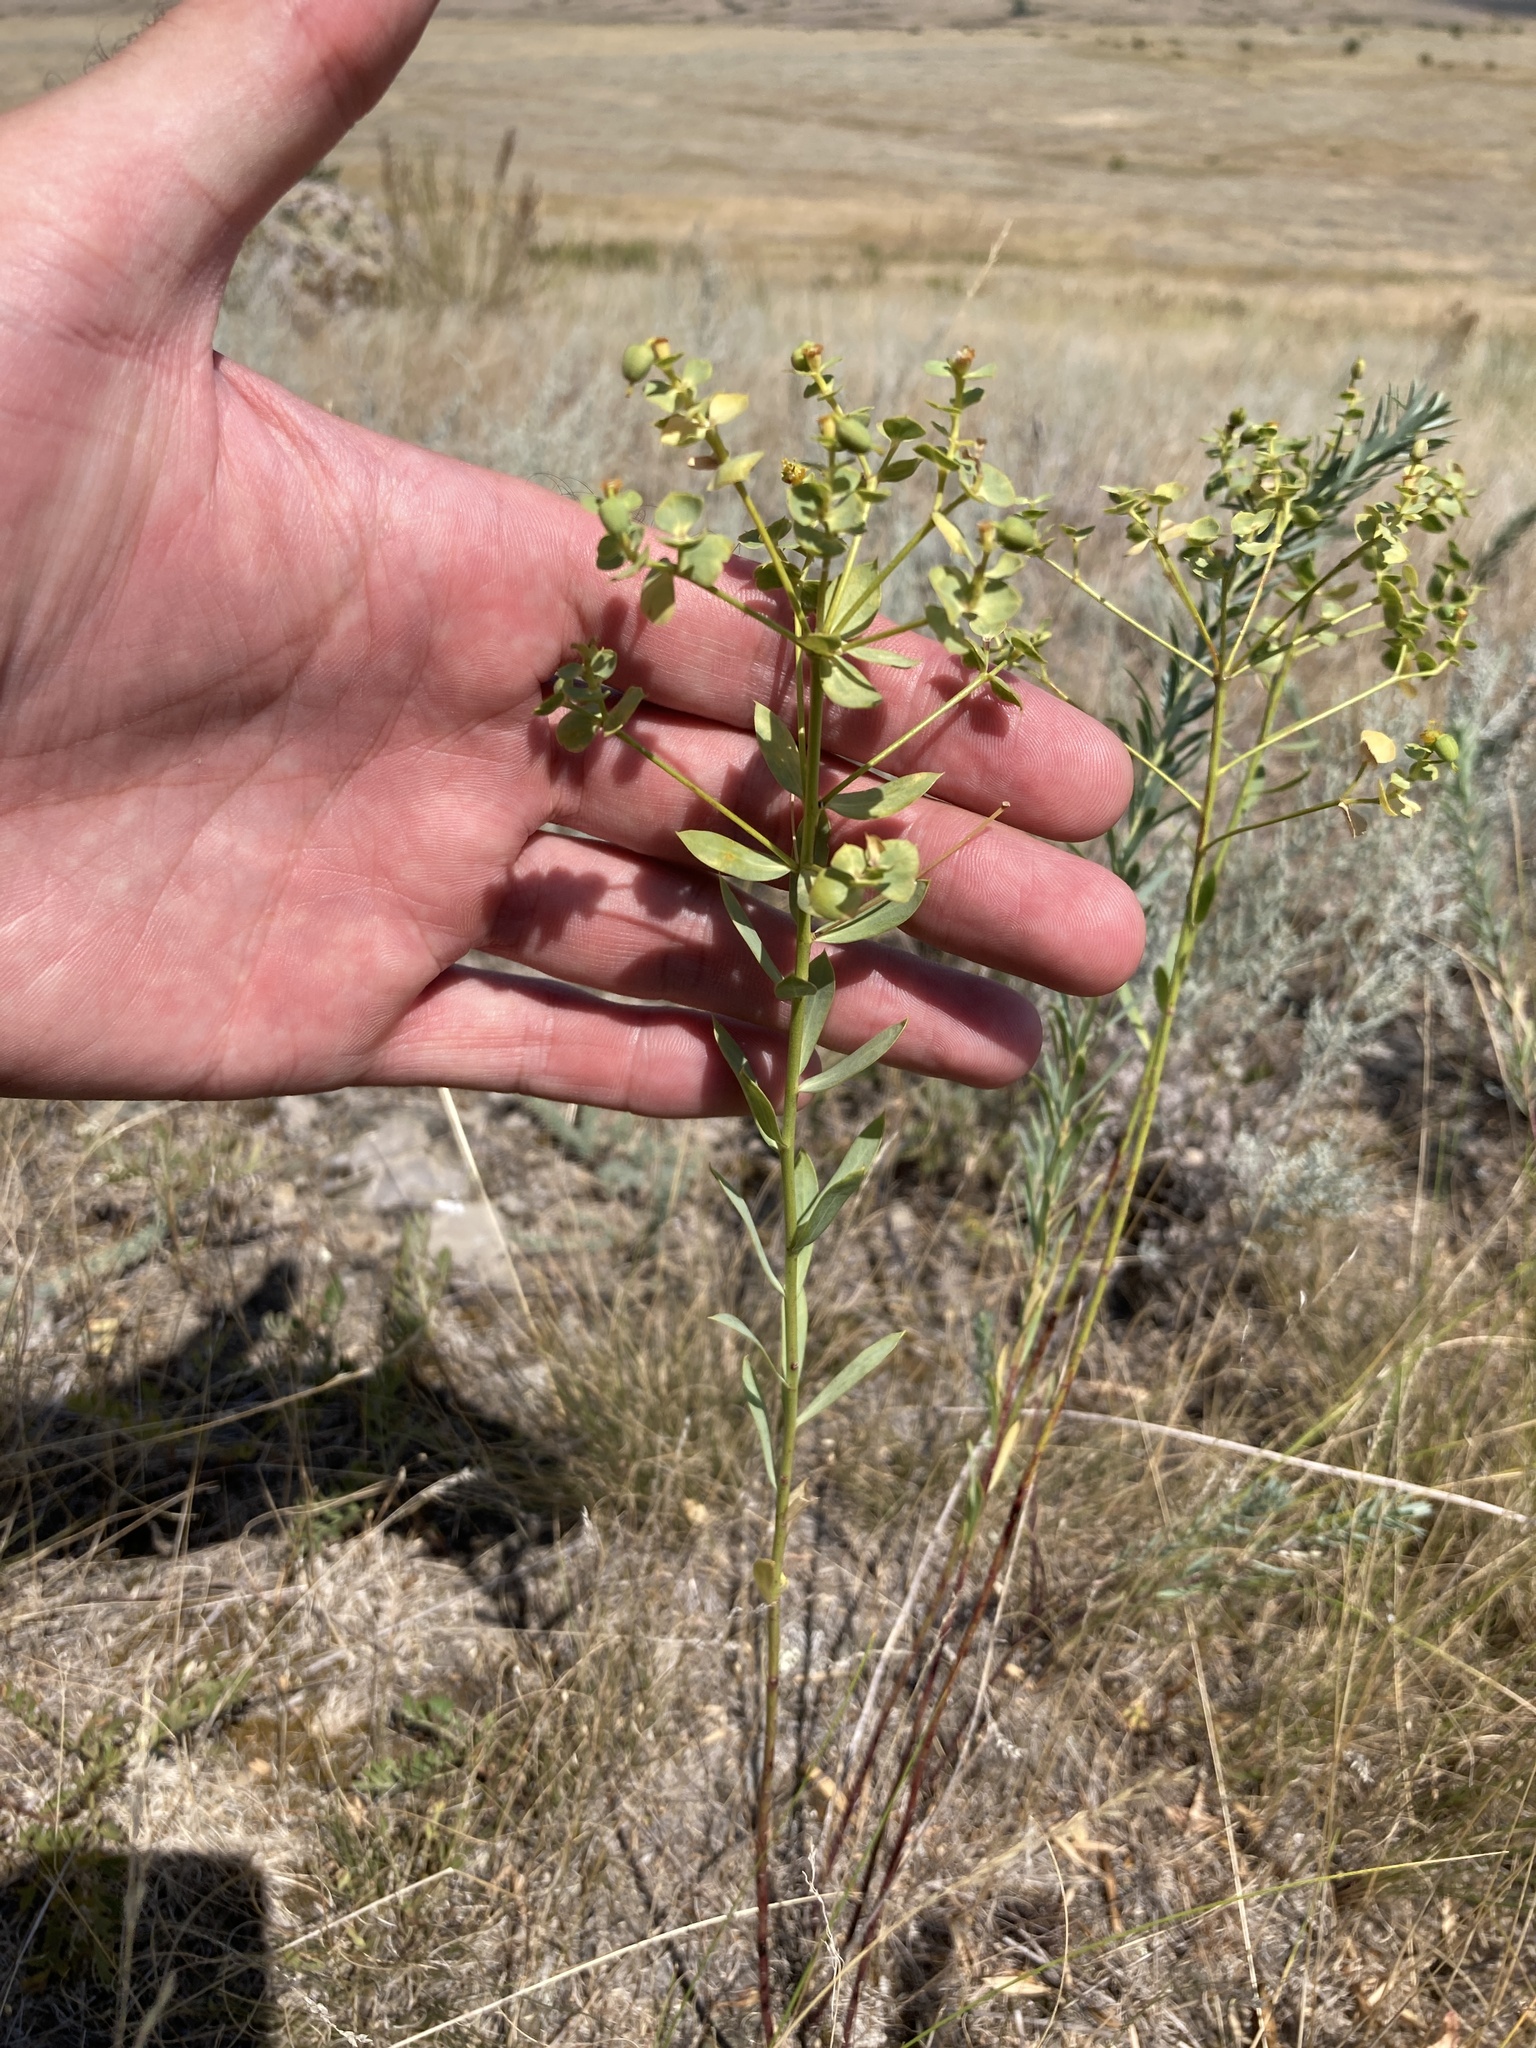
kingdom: Plantae
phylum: Tracheophyta
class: Magnoliopsida
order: Malpighiales
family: Euphorbiaceae
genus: Euphorbia
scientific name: Euphorbia seguieriana
